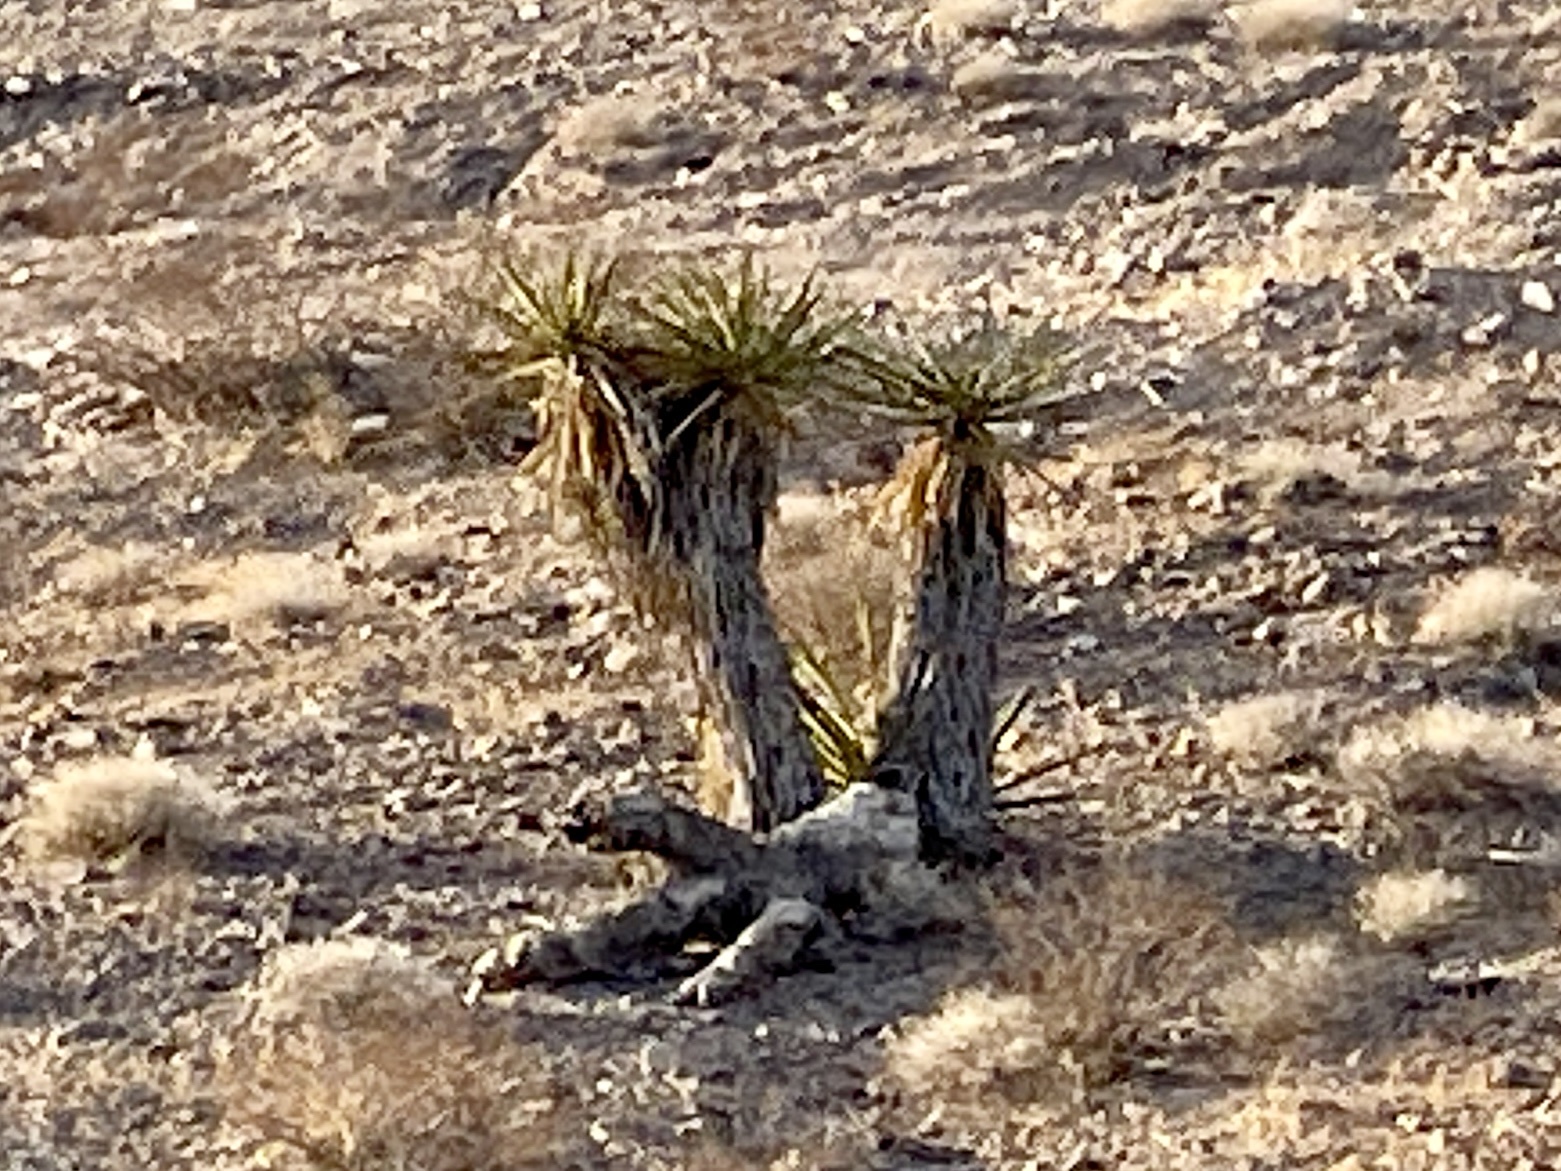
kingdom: Plantae
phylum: Tracheophyta
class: Liliopsida
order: Asparagales
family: Asparagaceae
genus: Yucca
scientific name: Yucca schidigera
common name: Mojave yucca
